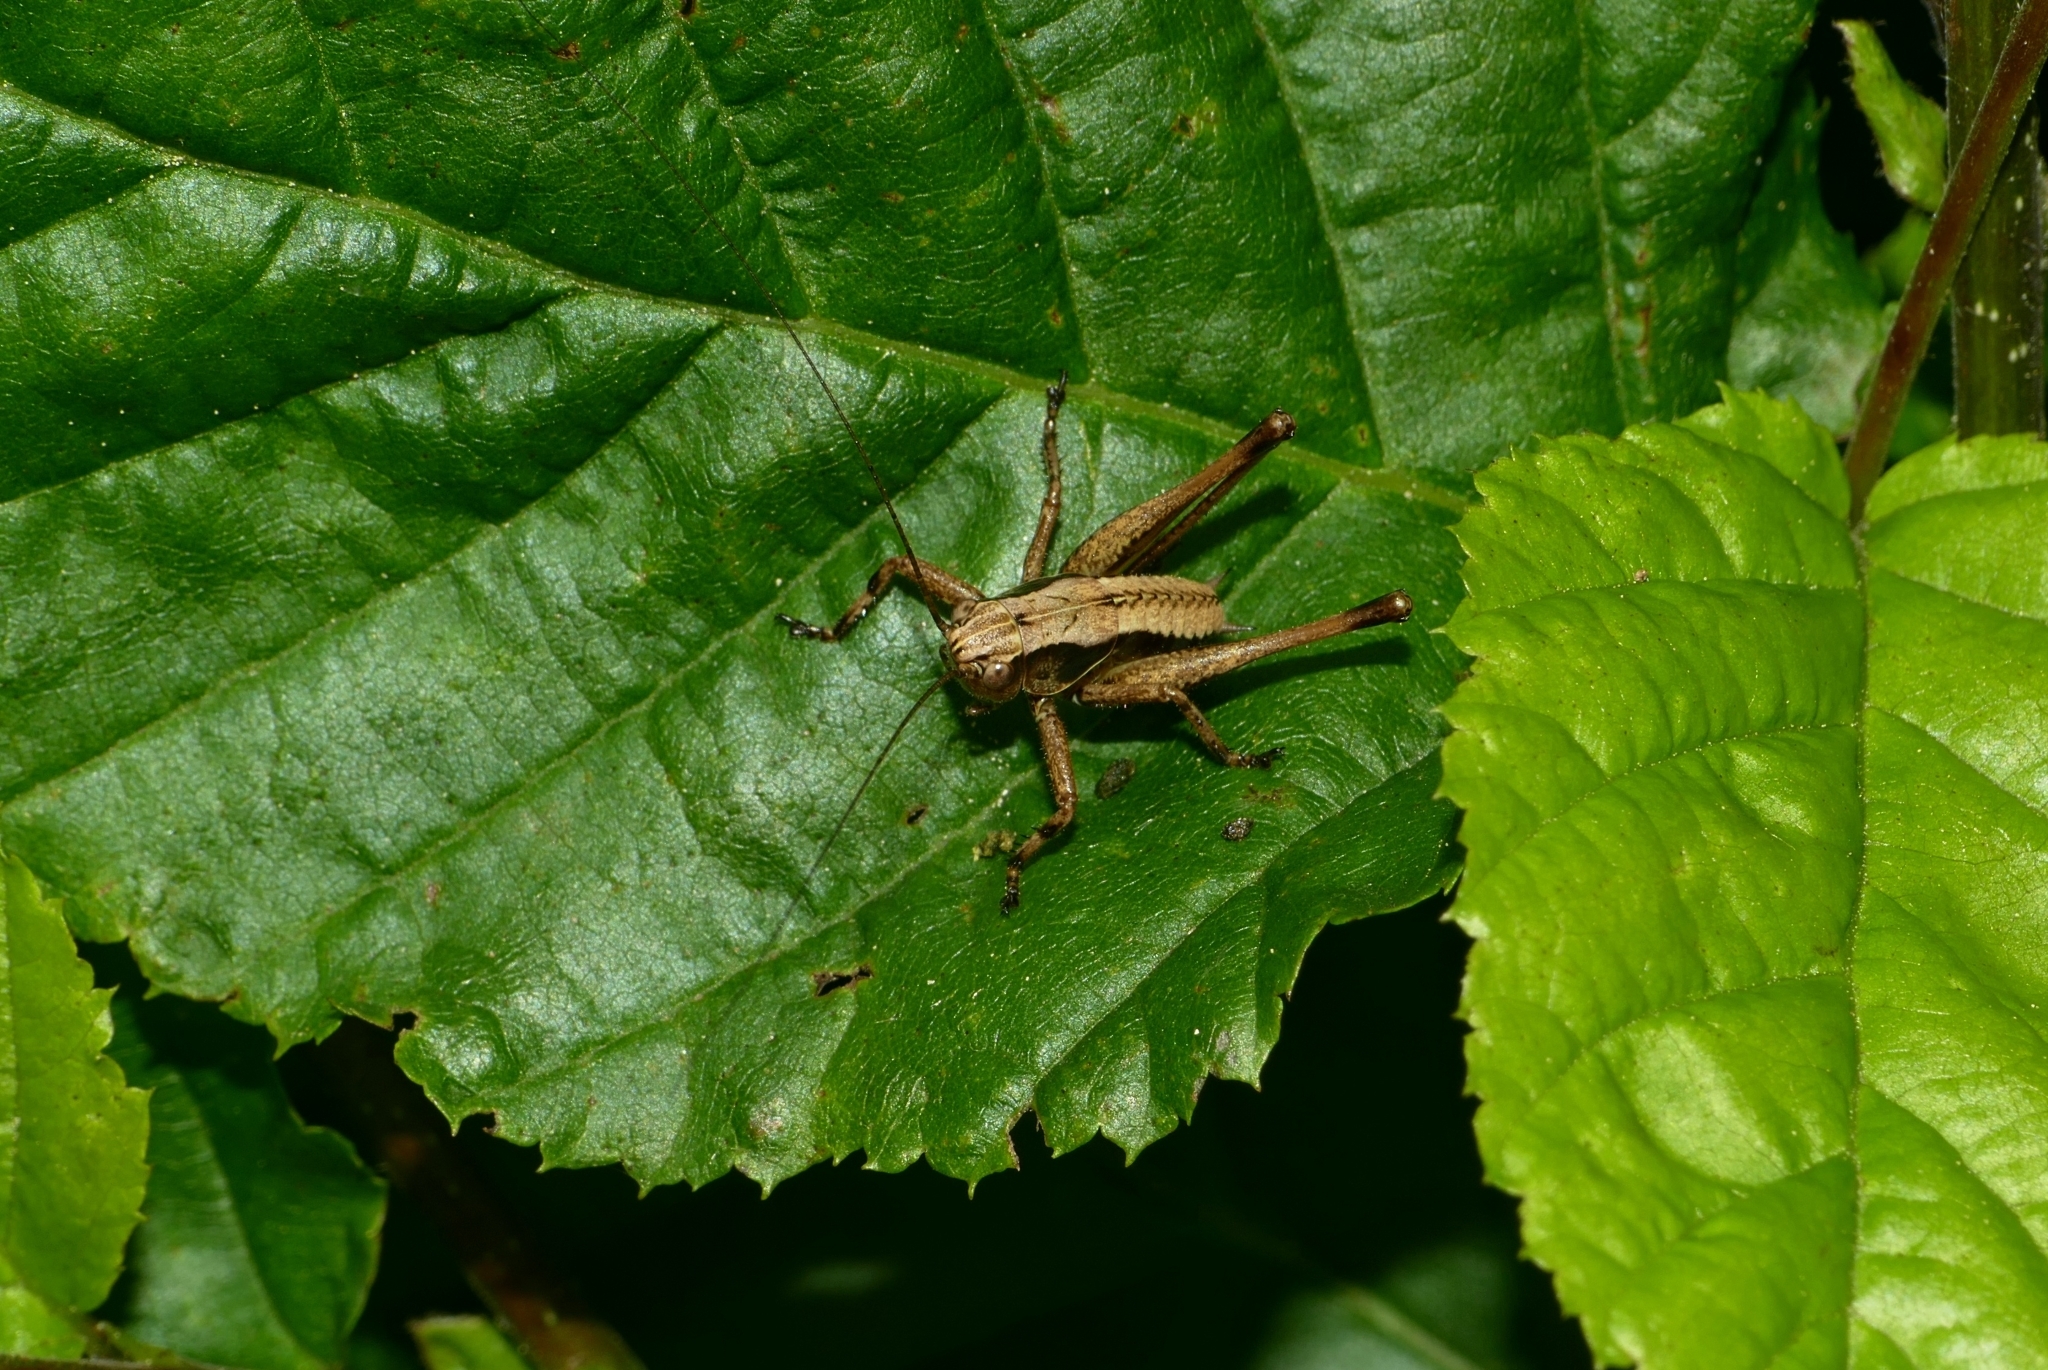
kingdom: Animalia
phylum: Arthropoda
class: Insecta
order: Orthoptera
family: Tettigoniidae
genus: Pholidoptera
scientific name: Pholidoptera griseoaptera
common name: Dark bush-cricket
